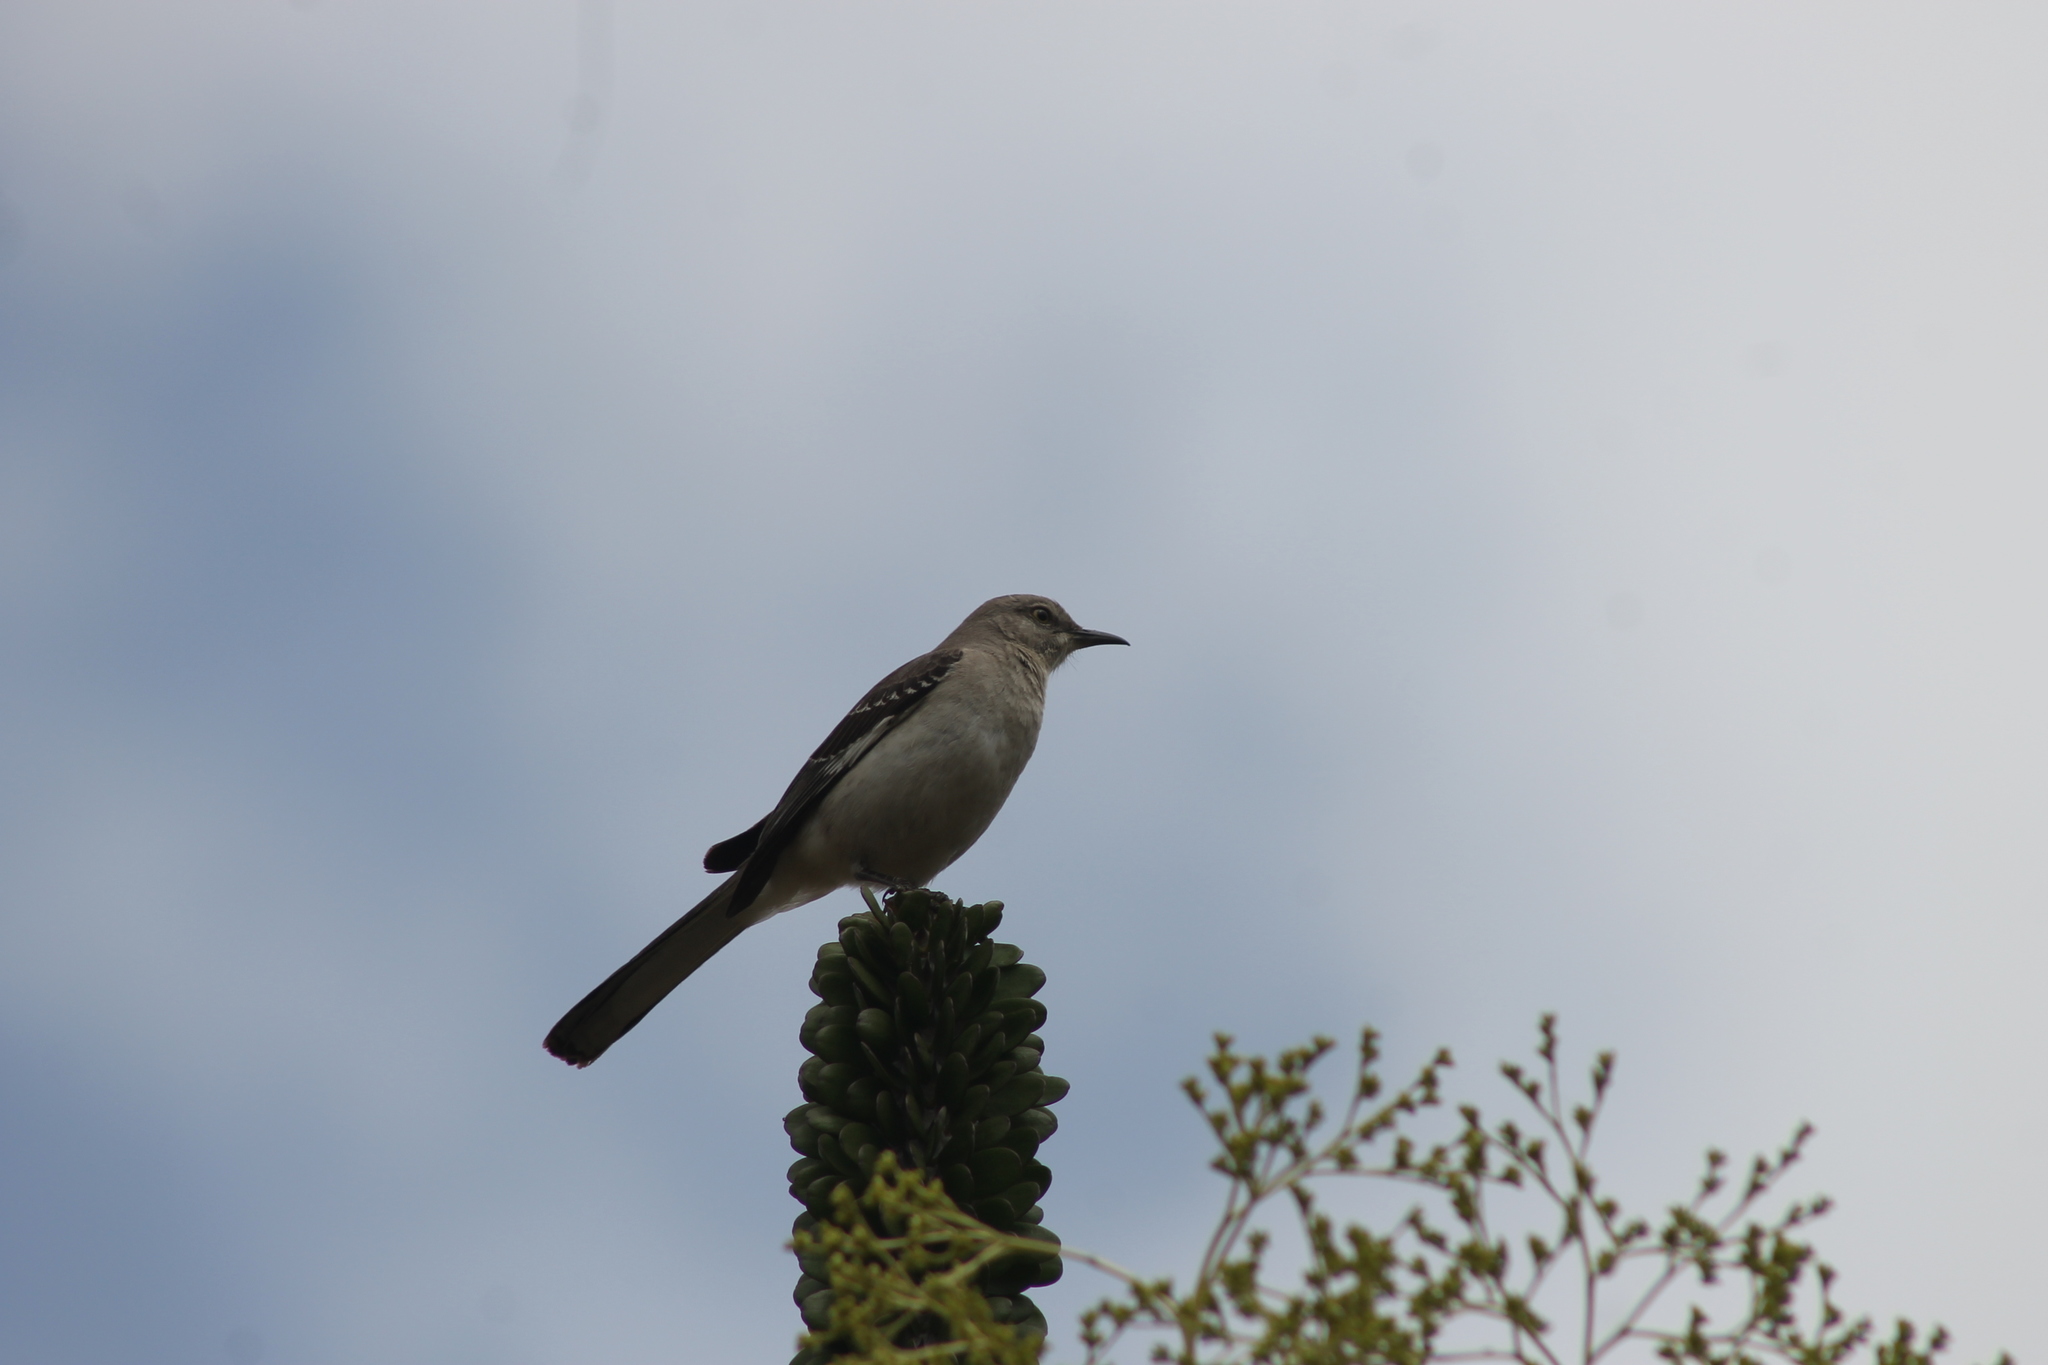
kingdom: Animalia
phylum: Chordata
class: Aves
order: Passeriformes
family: Mimidae
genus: Mimus
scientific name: Mimus polyglottos
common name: Northern mockingbird
